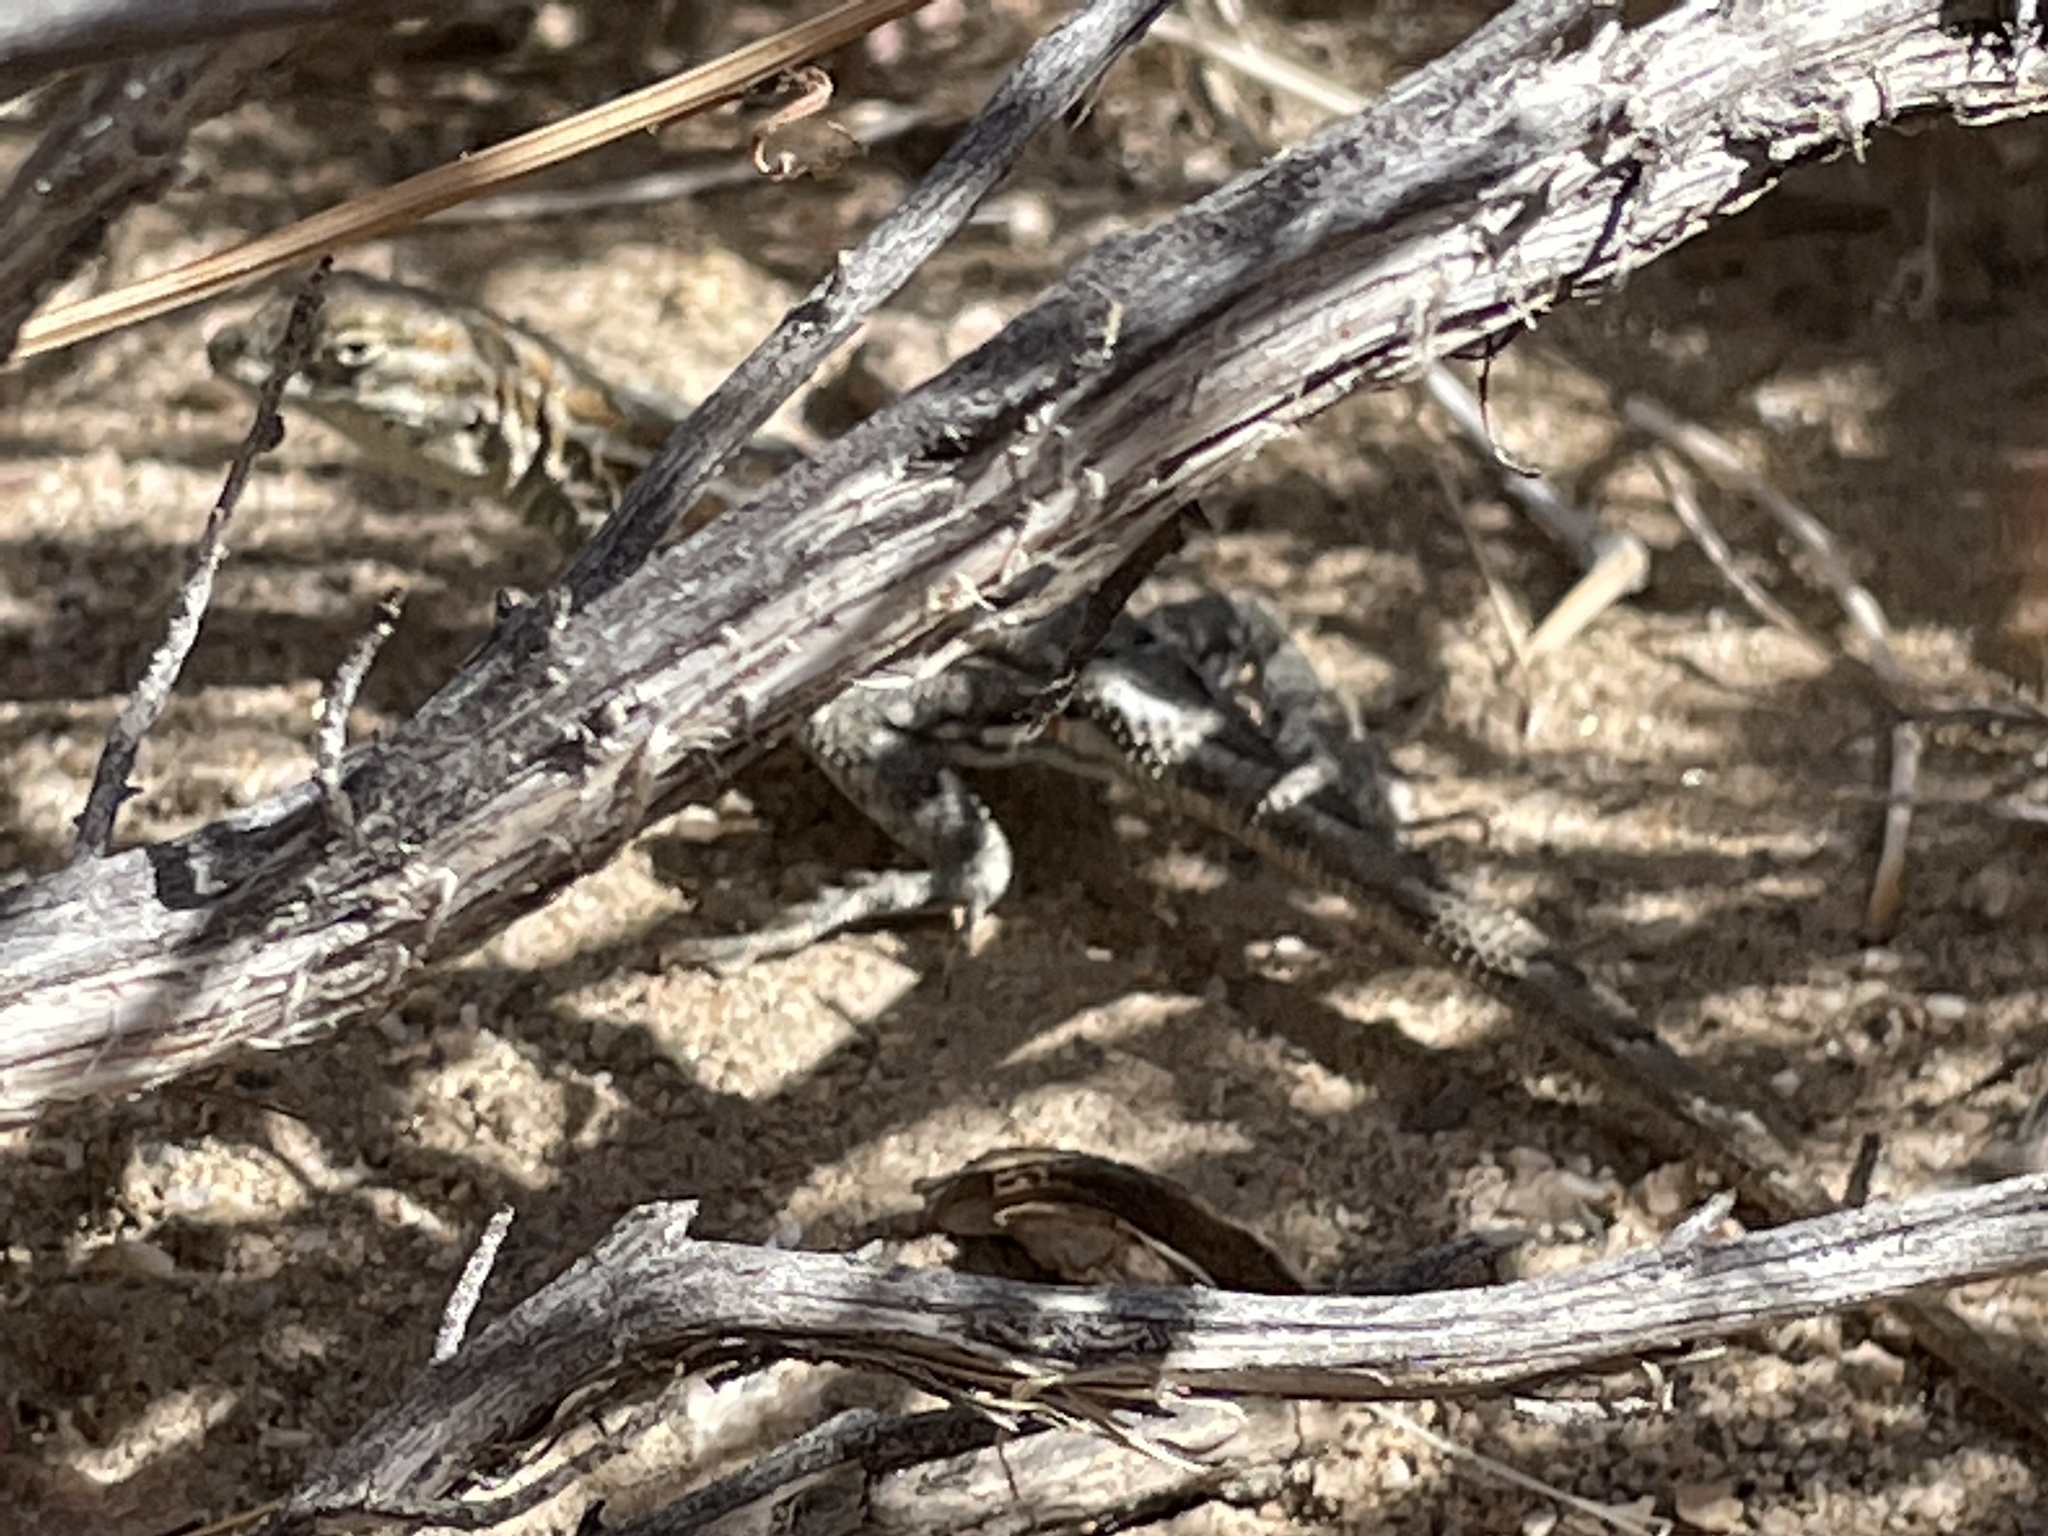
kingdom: Animalia
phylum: Chordata
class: Squamata
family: Phrynosomatidae
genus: Uta
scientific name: Uta stansburiana
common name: Side-blotched lizard
